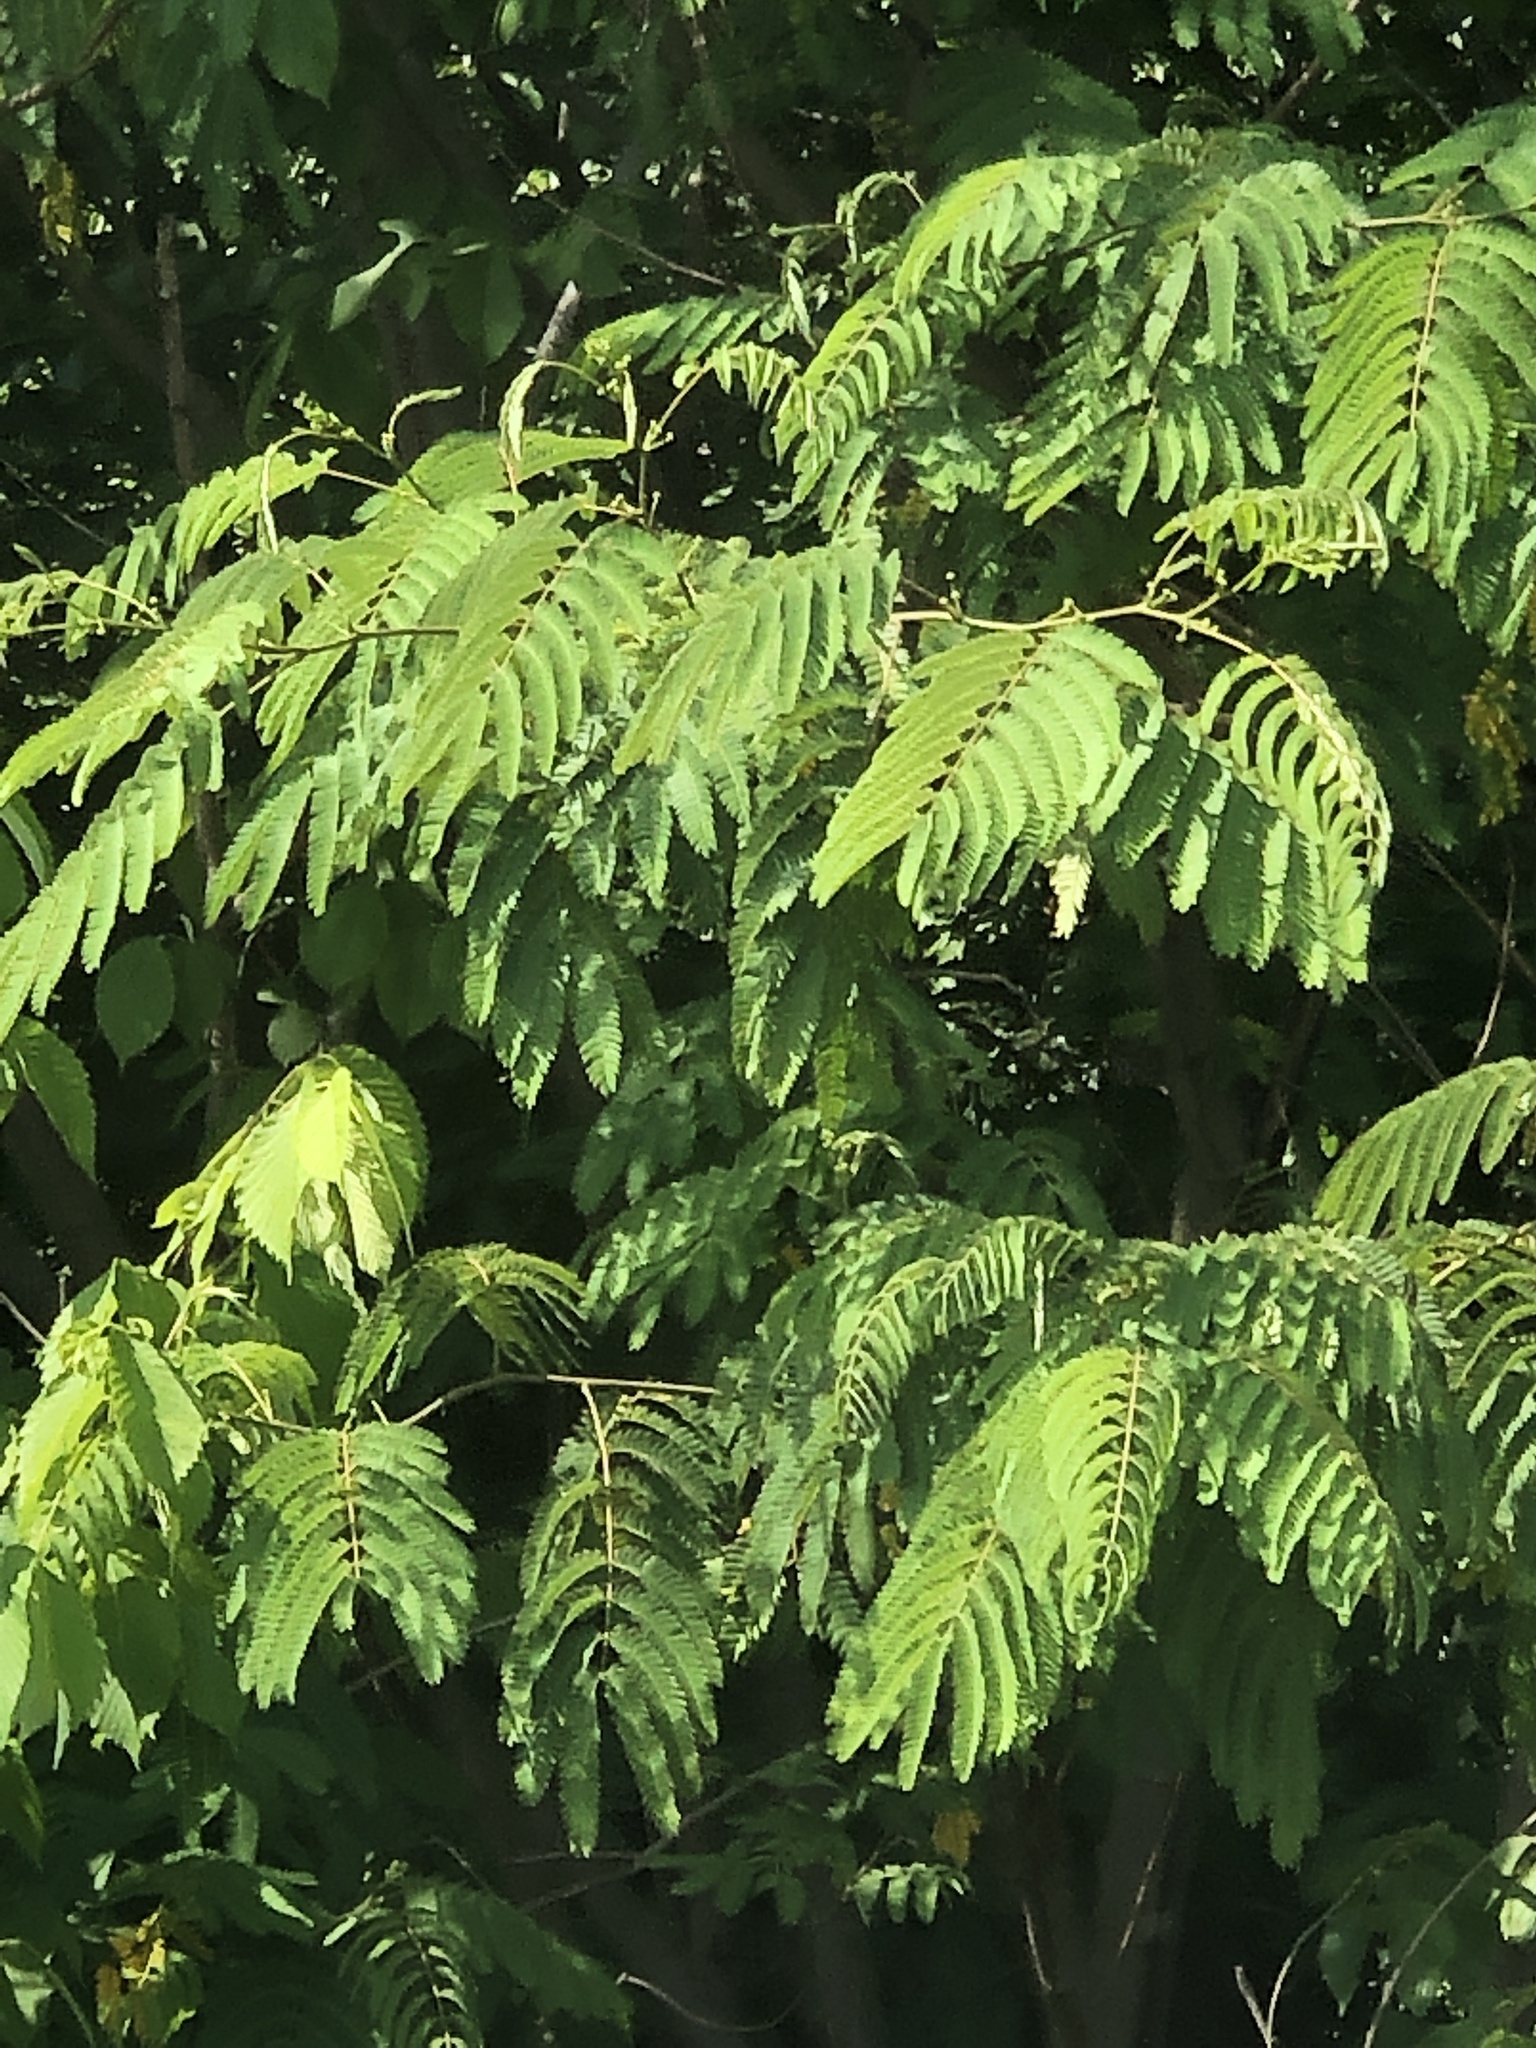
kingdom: Plantae
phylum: Tracheophyta
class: Magnoliopsida
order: Fabales
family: Fabaceae
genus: Albizia
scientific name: Albizia julibrissin
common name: Silktree
